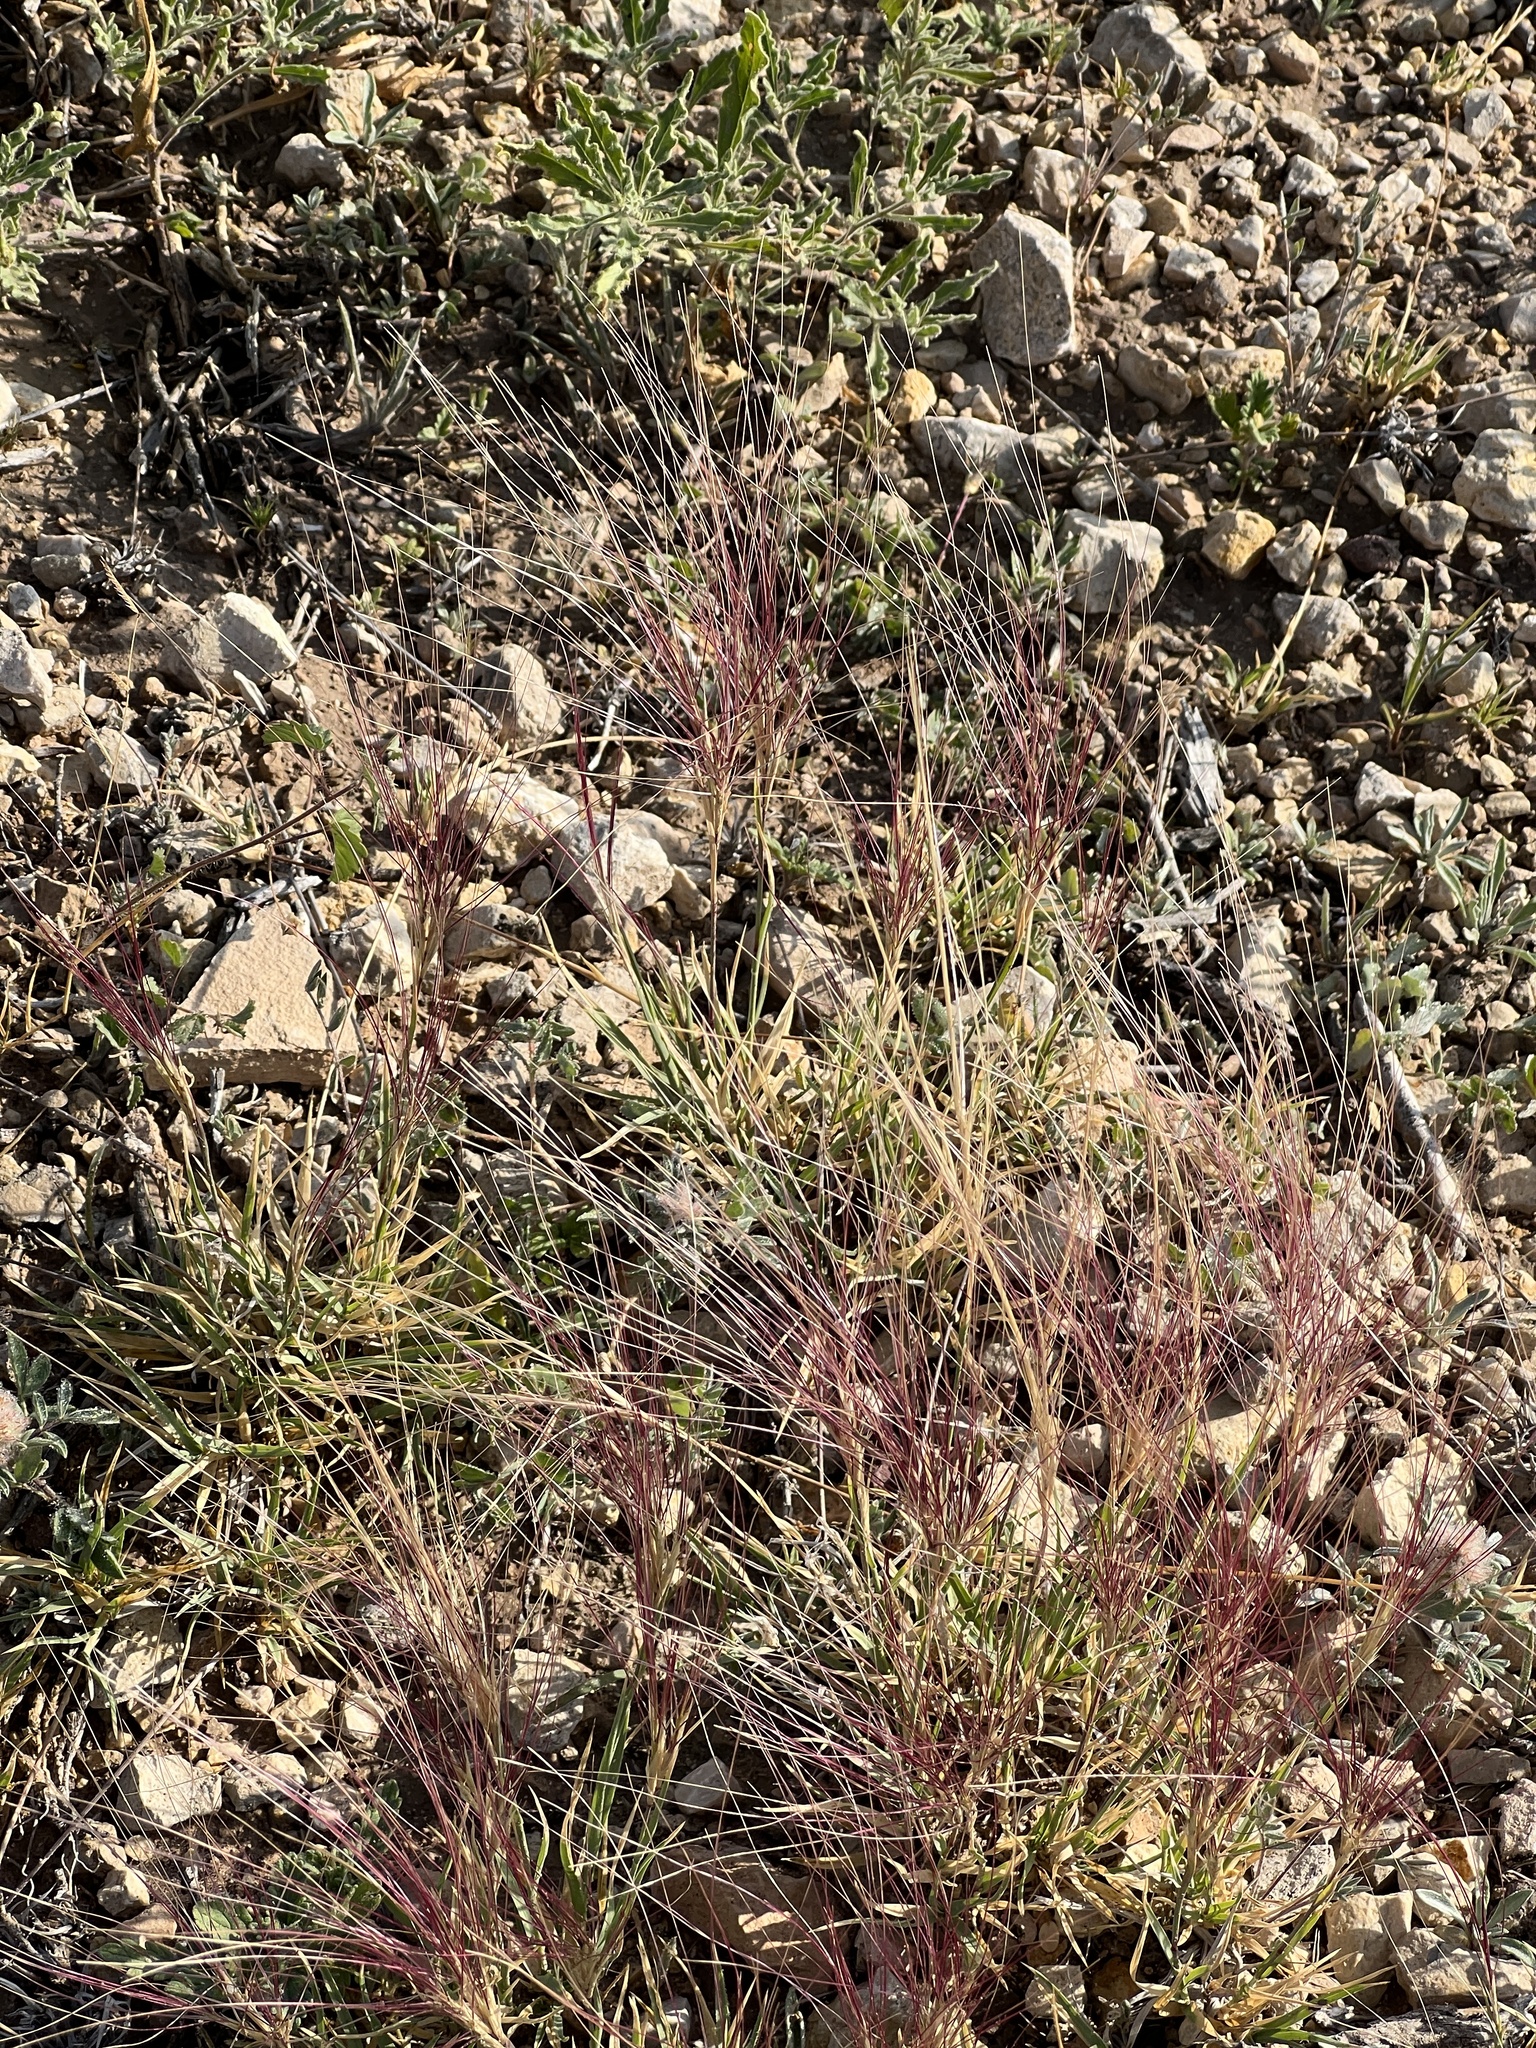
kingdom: Plantae
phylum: Tracheophyta
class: Liliopsida
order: Poales
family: Poaceae
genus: Scleropogon
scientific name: Scleropogon brevifolius
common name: Burro grass
